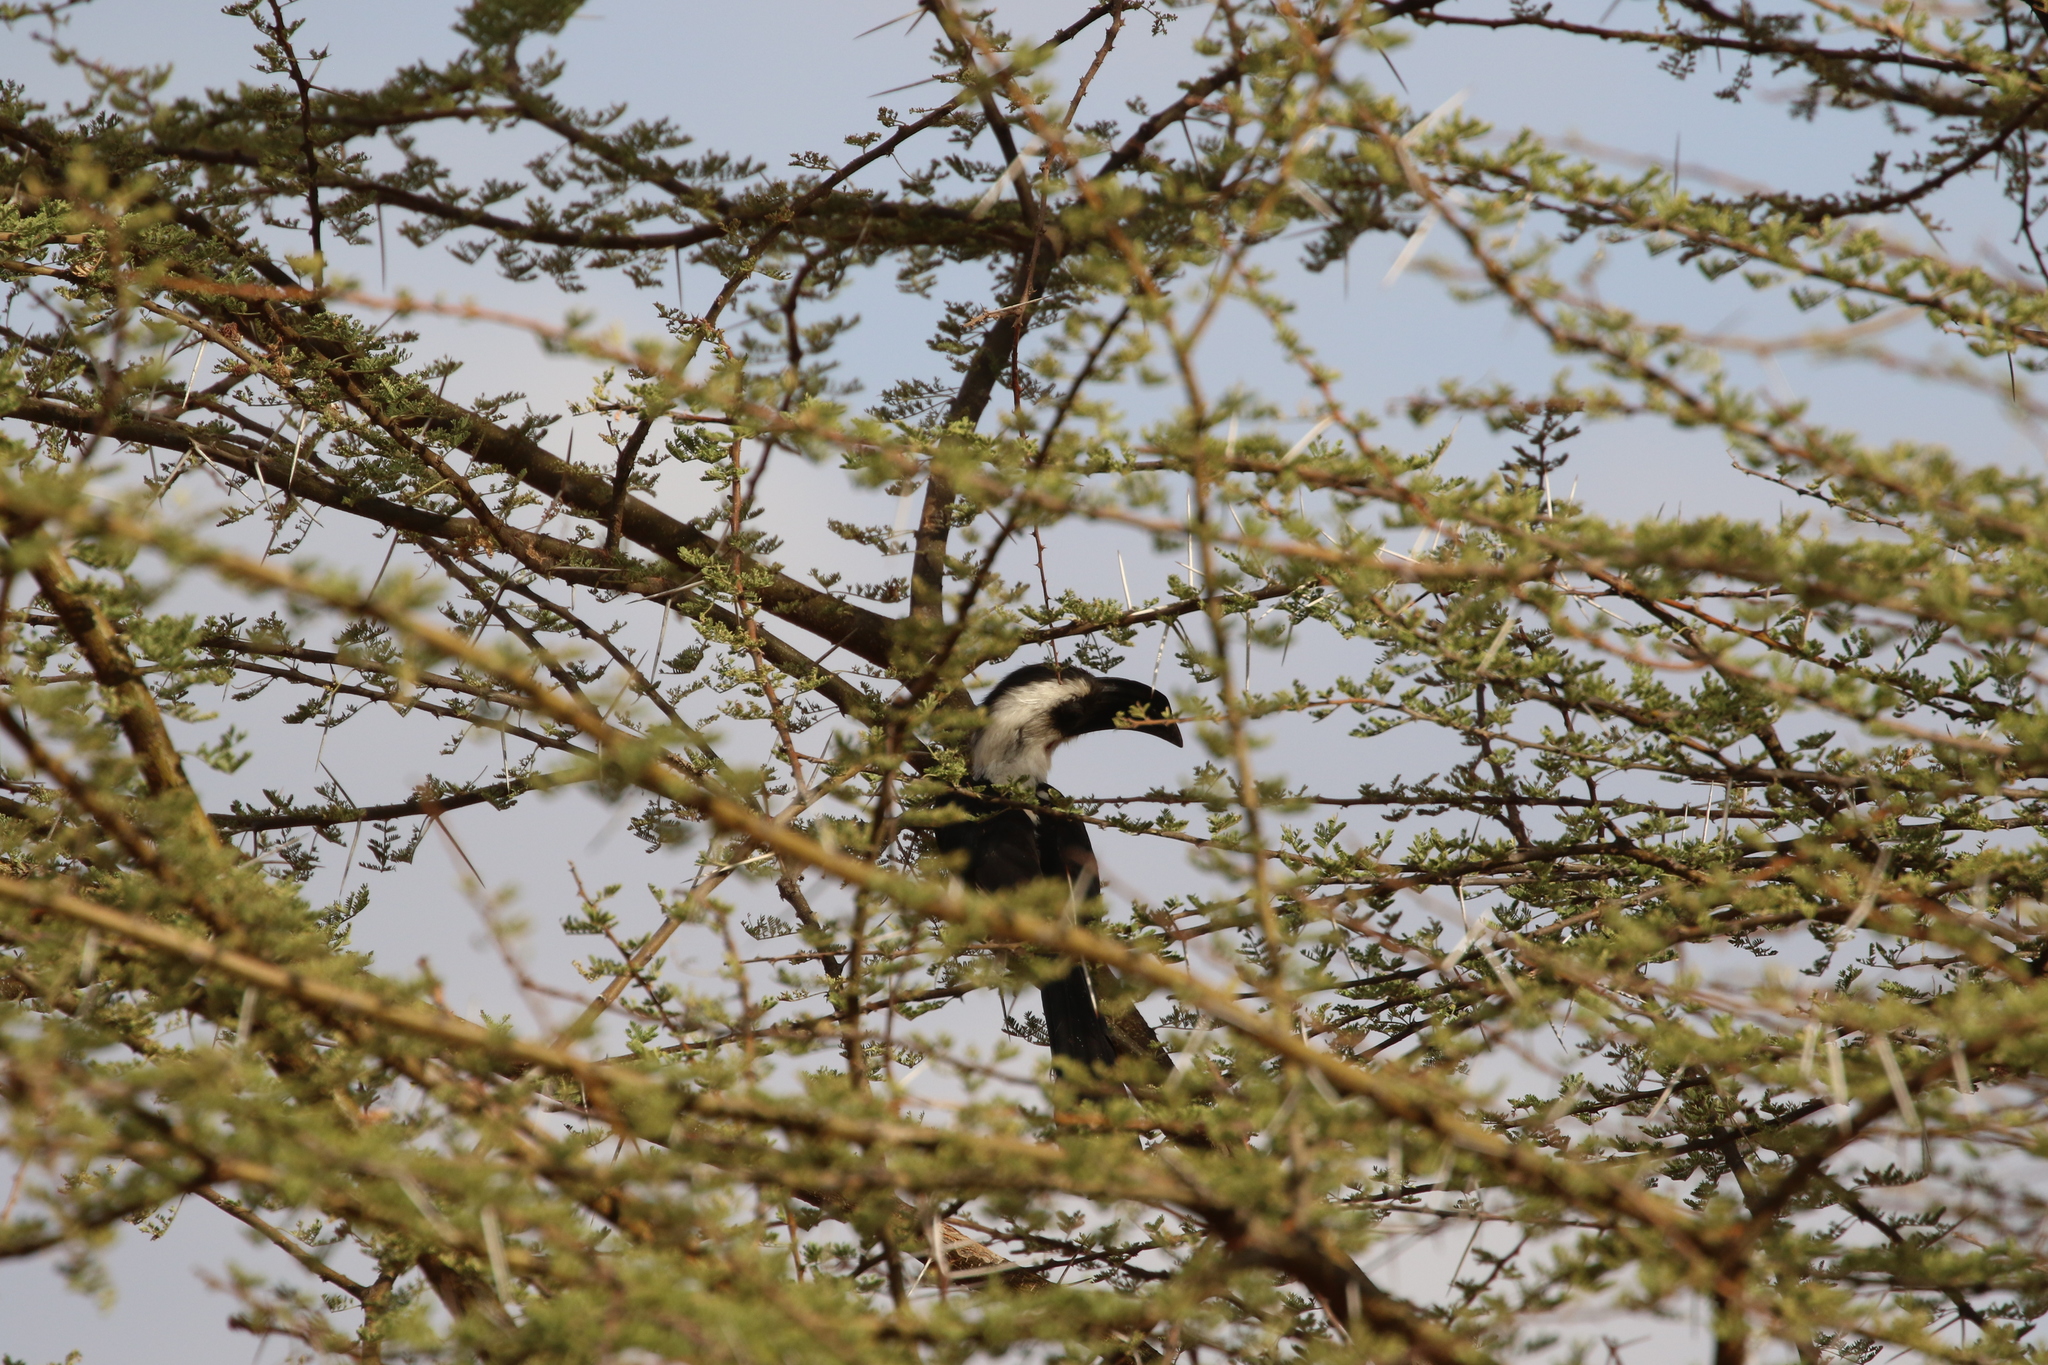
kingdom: Animalia
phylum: Chordata
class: Aves
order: Bucerotiformes
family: Bucerotidae
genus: Tockus
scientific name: Tockus deckeni
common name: Von der decken's hornbill
